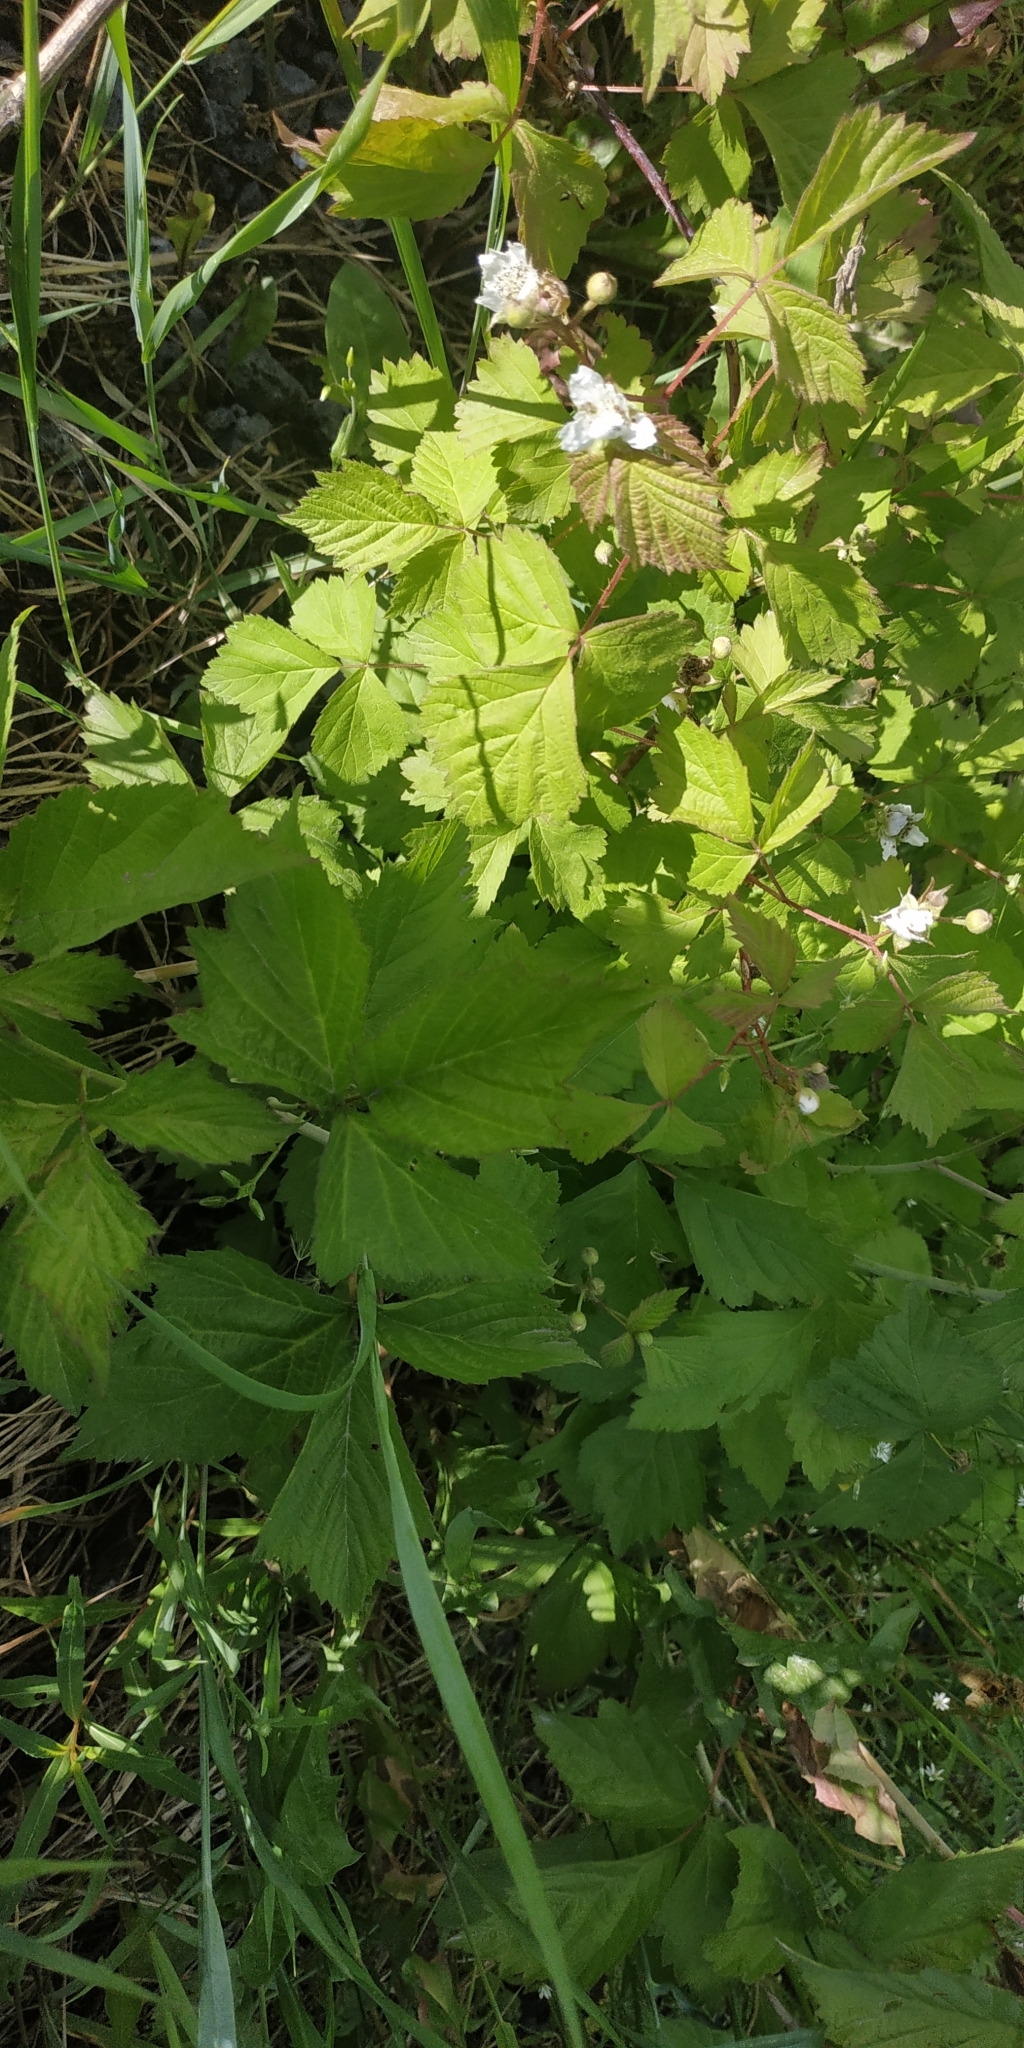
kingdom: Plantae
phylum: Tracheophyta
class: Magnoliopsida
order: Rosales
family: Rosaceae
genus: Rubus
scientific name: Rubus caesius
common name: Dewberry
